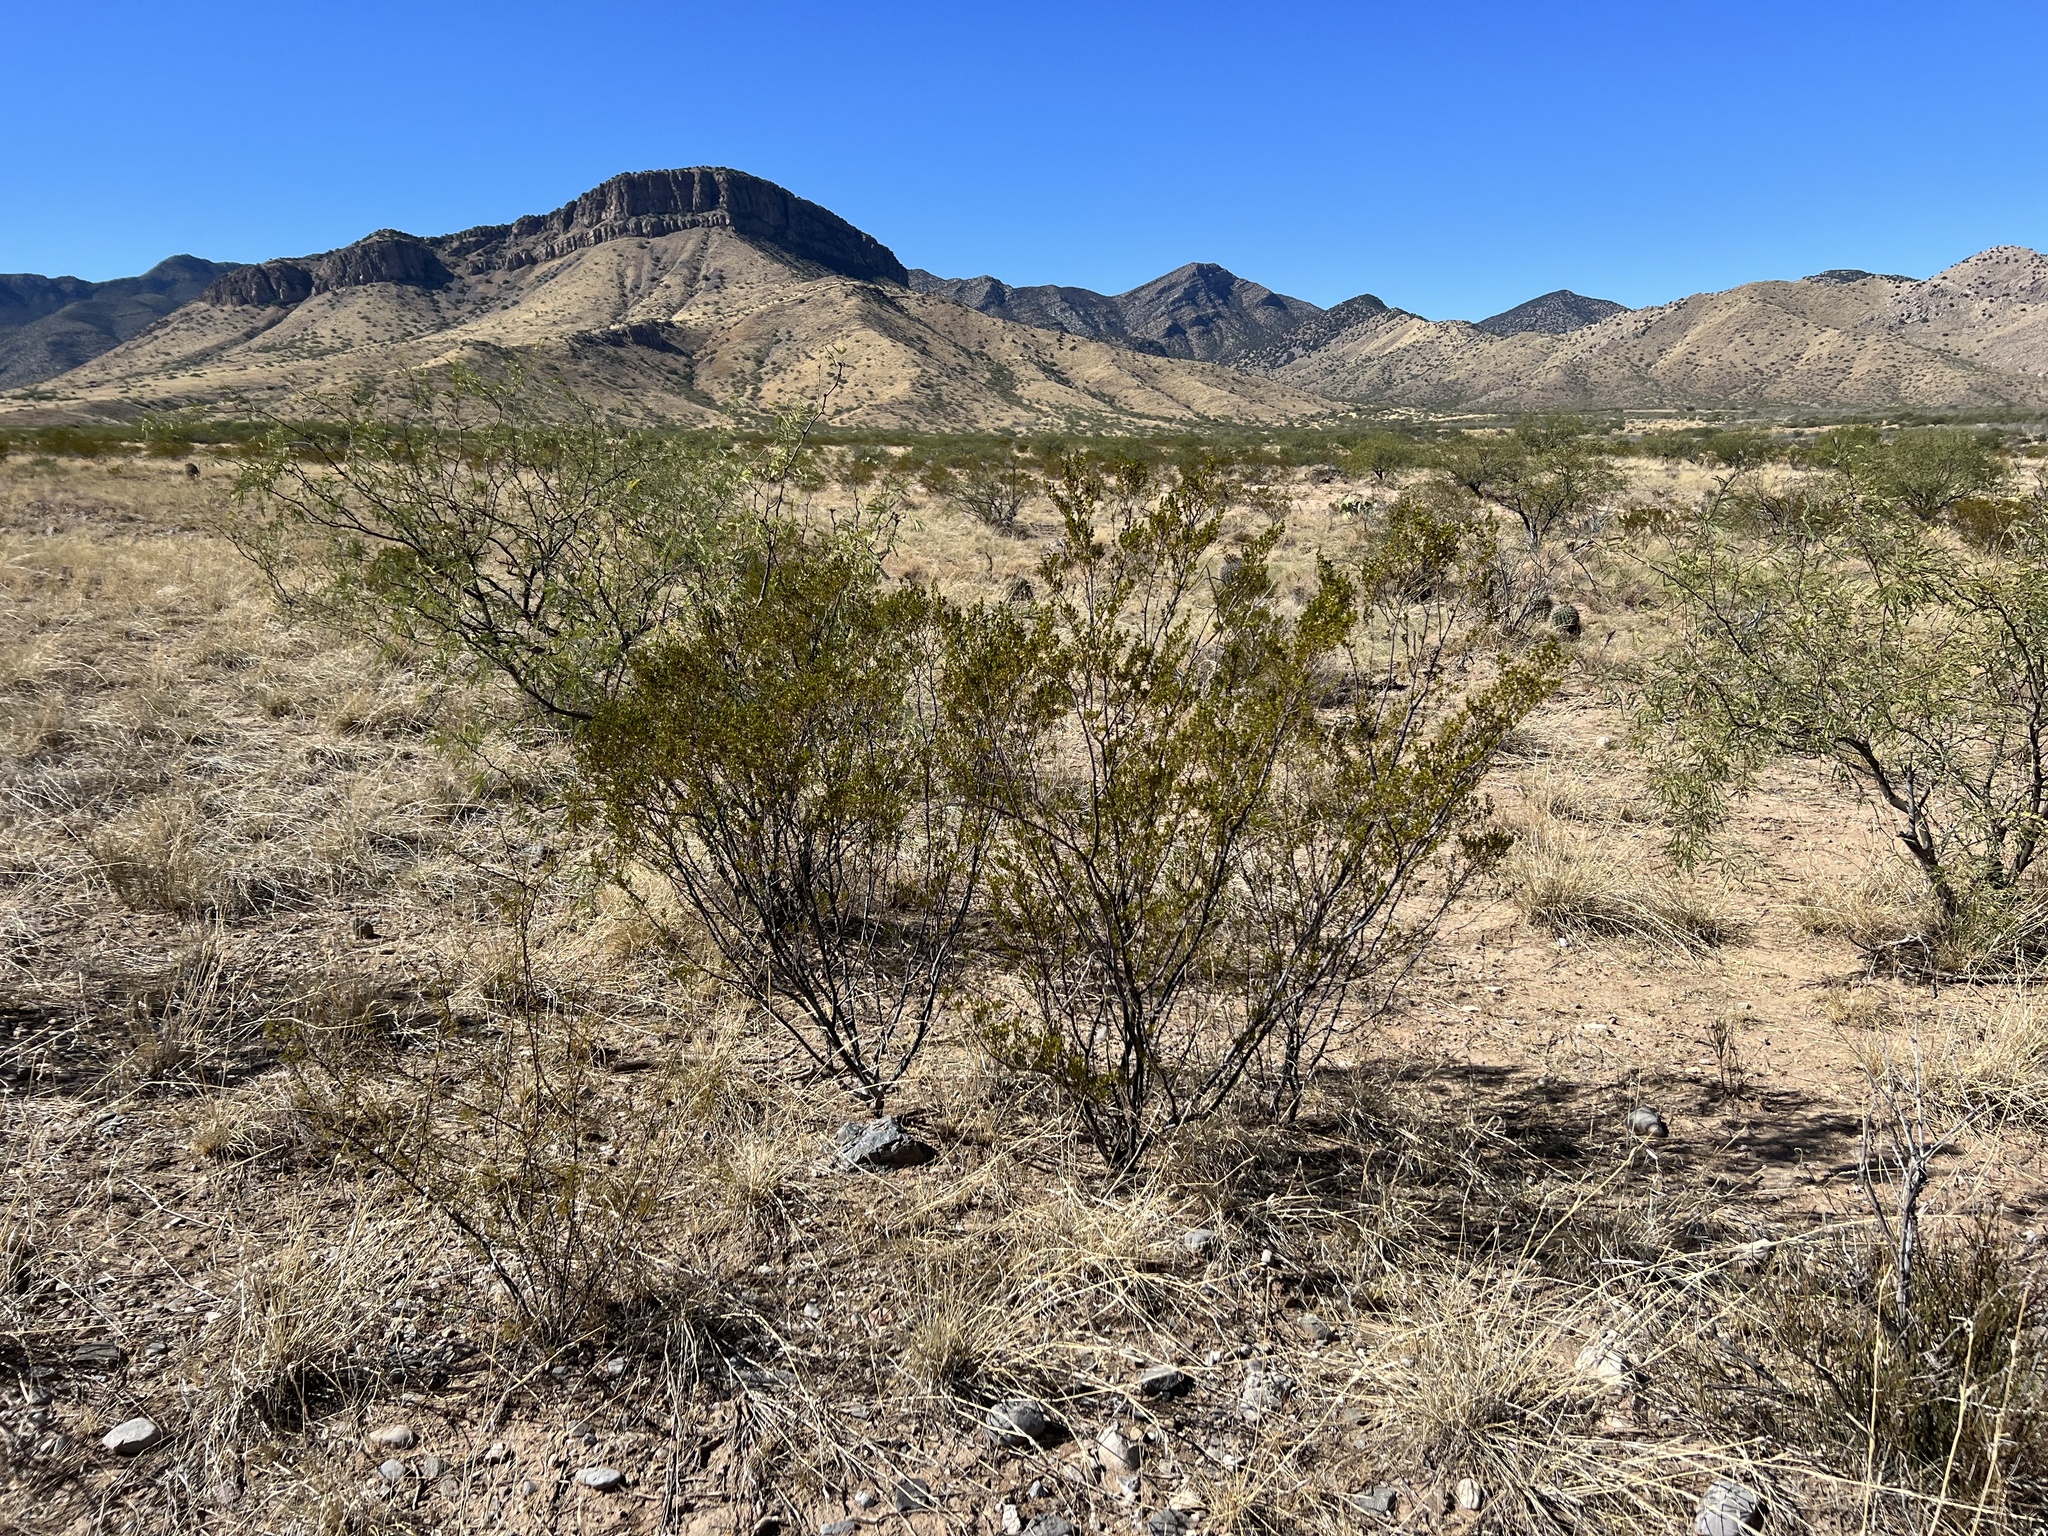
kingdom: Plantae
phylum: Tracheophyta
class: Magnoliopsida
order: Zygophyllales
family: Zygophyllaceae
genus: Larrea
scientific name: Larrea tridentata
